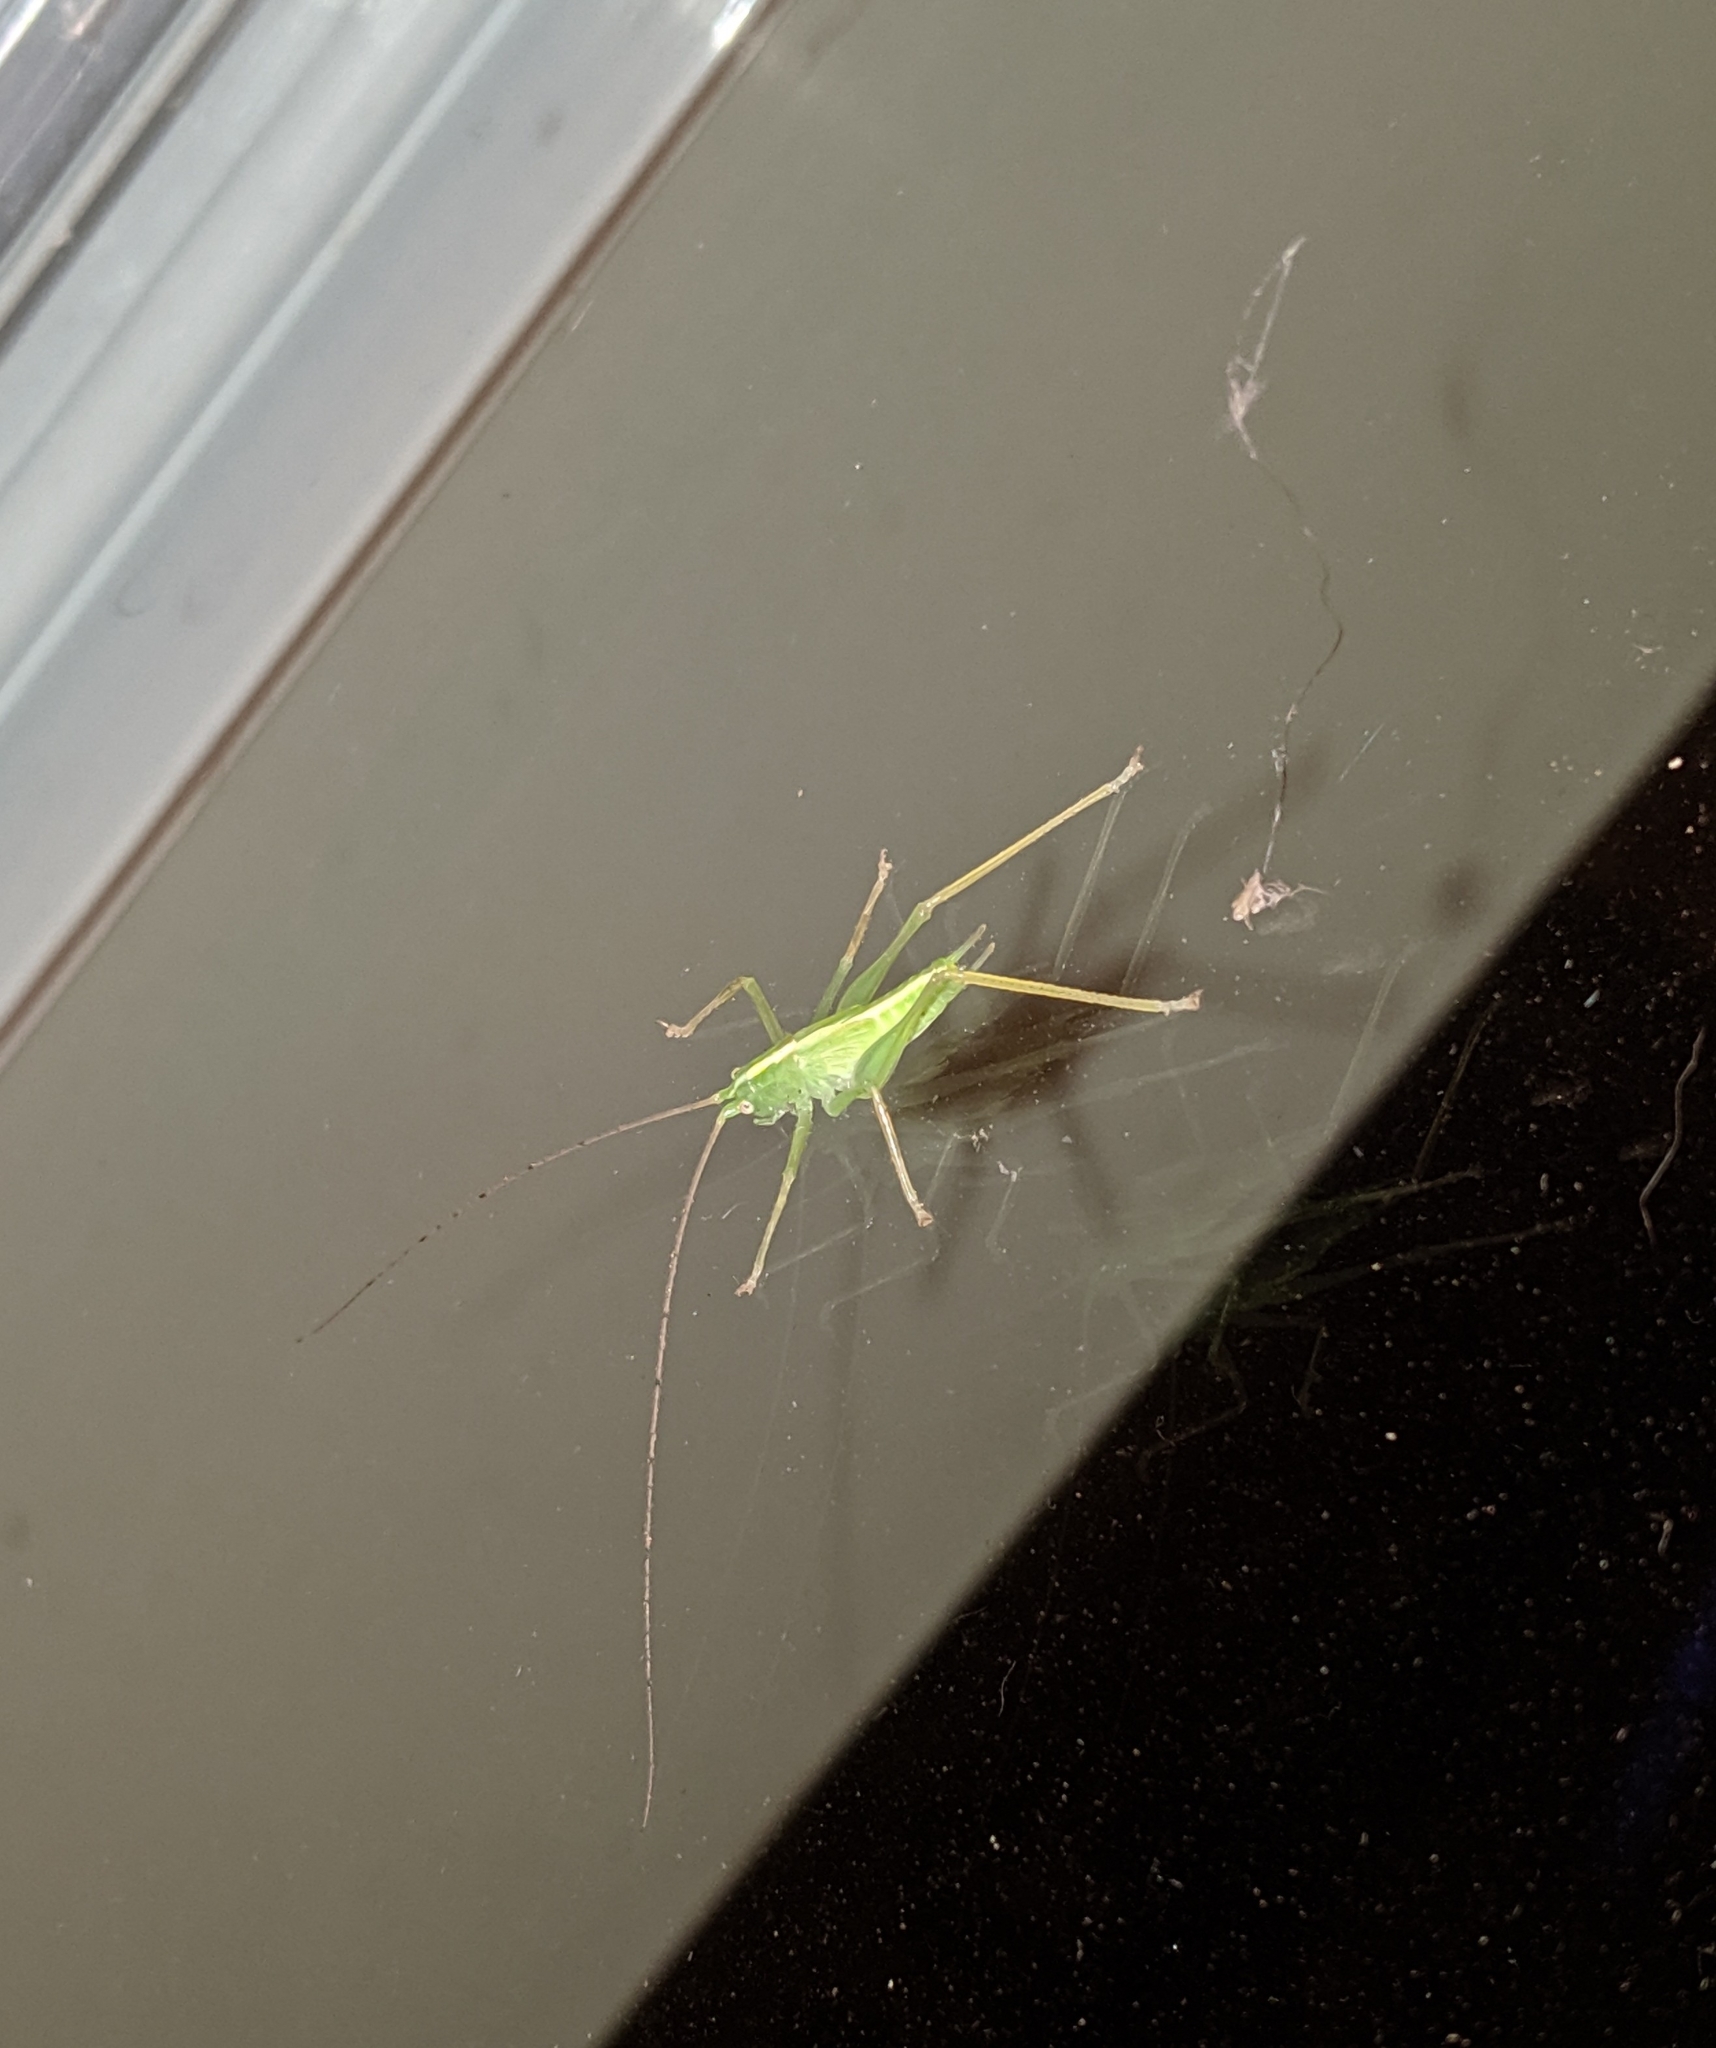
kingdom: Animalia
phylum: Arthropoda
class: Insecta
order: Orthoptera
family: Tettigoniidae
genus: Meconema
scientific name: Meconema thalassinum
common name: Oak bush-cricket
